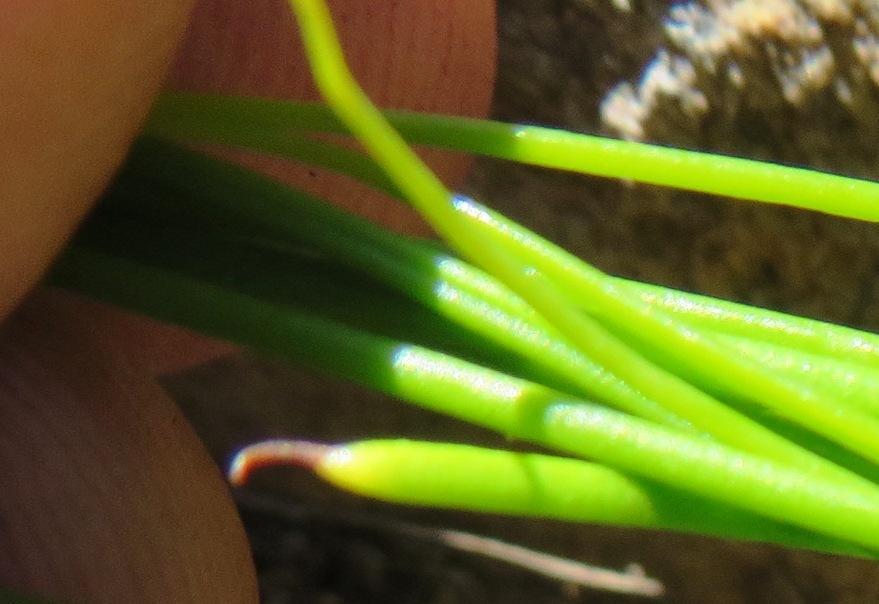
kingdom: Plantae
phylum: Tracheophyta
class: Magnoliopsida
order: Proteales
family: Proteaceae
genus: Protea
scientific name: Protea scorzonerifolia
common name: Channel-leaf sugarbush
